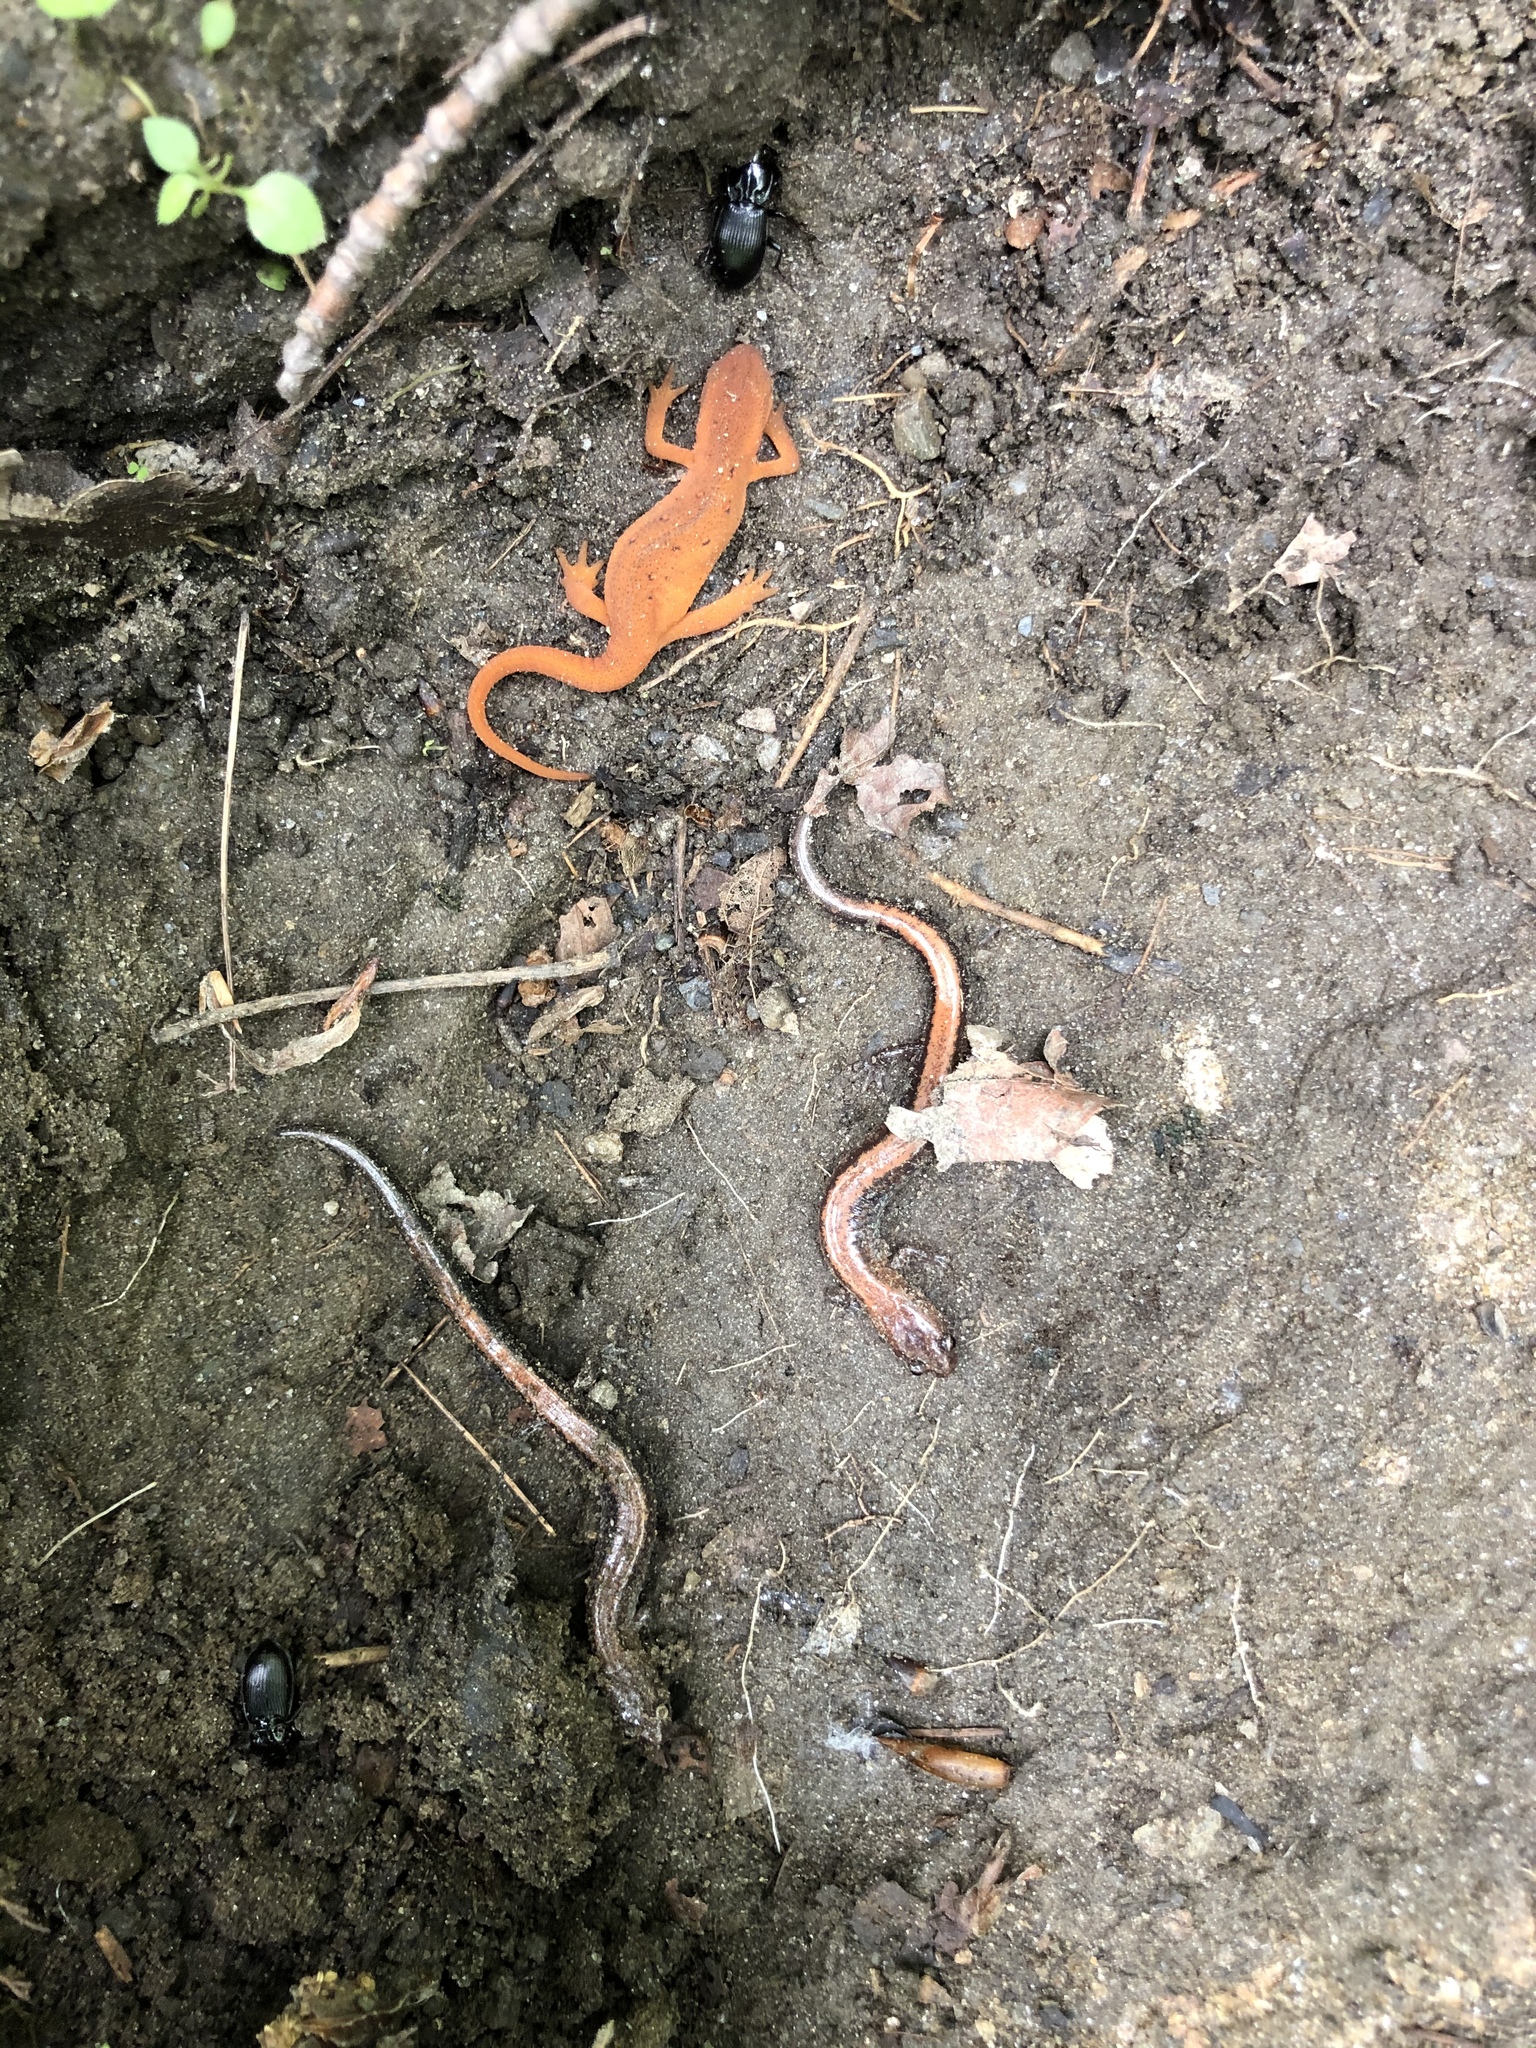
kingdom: Animalia
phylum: Chordata
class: Amphibia
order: Caudata
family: Salamandridae
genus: Notophthalmus
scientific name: Notophthalmus viridescens
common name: Eastern newt
